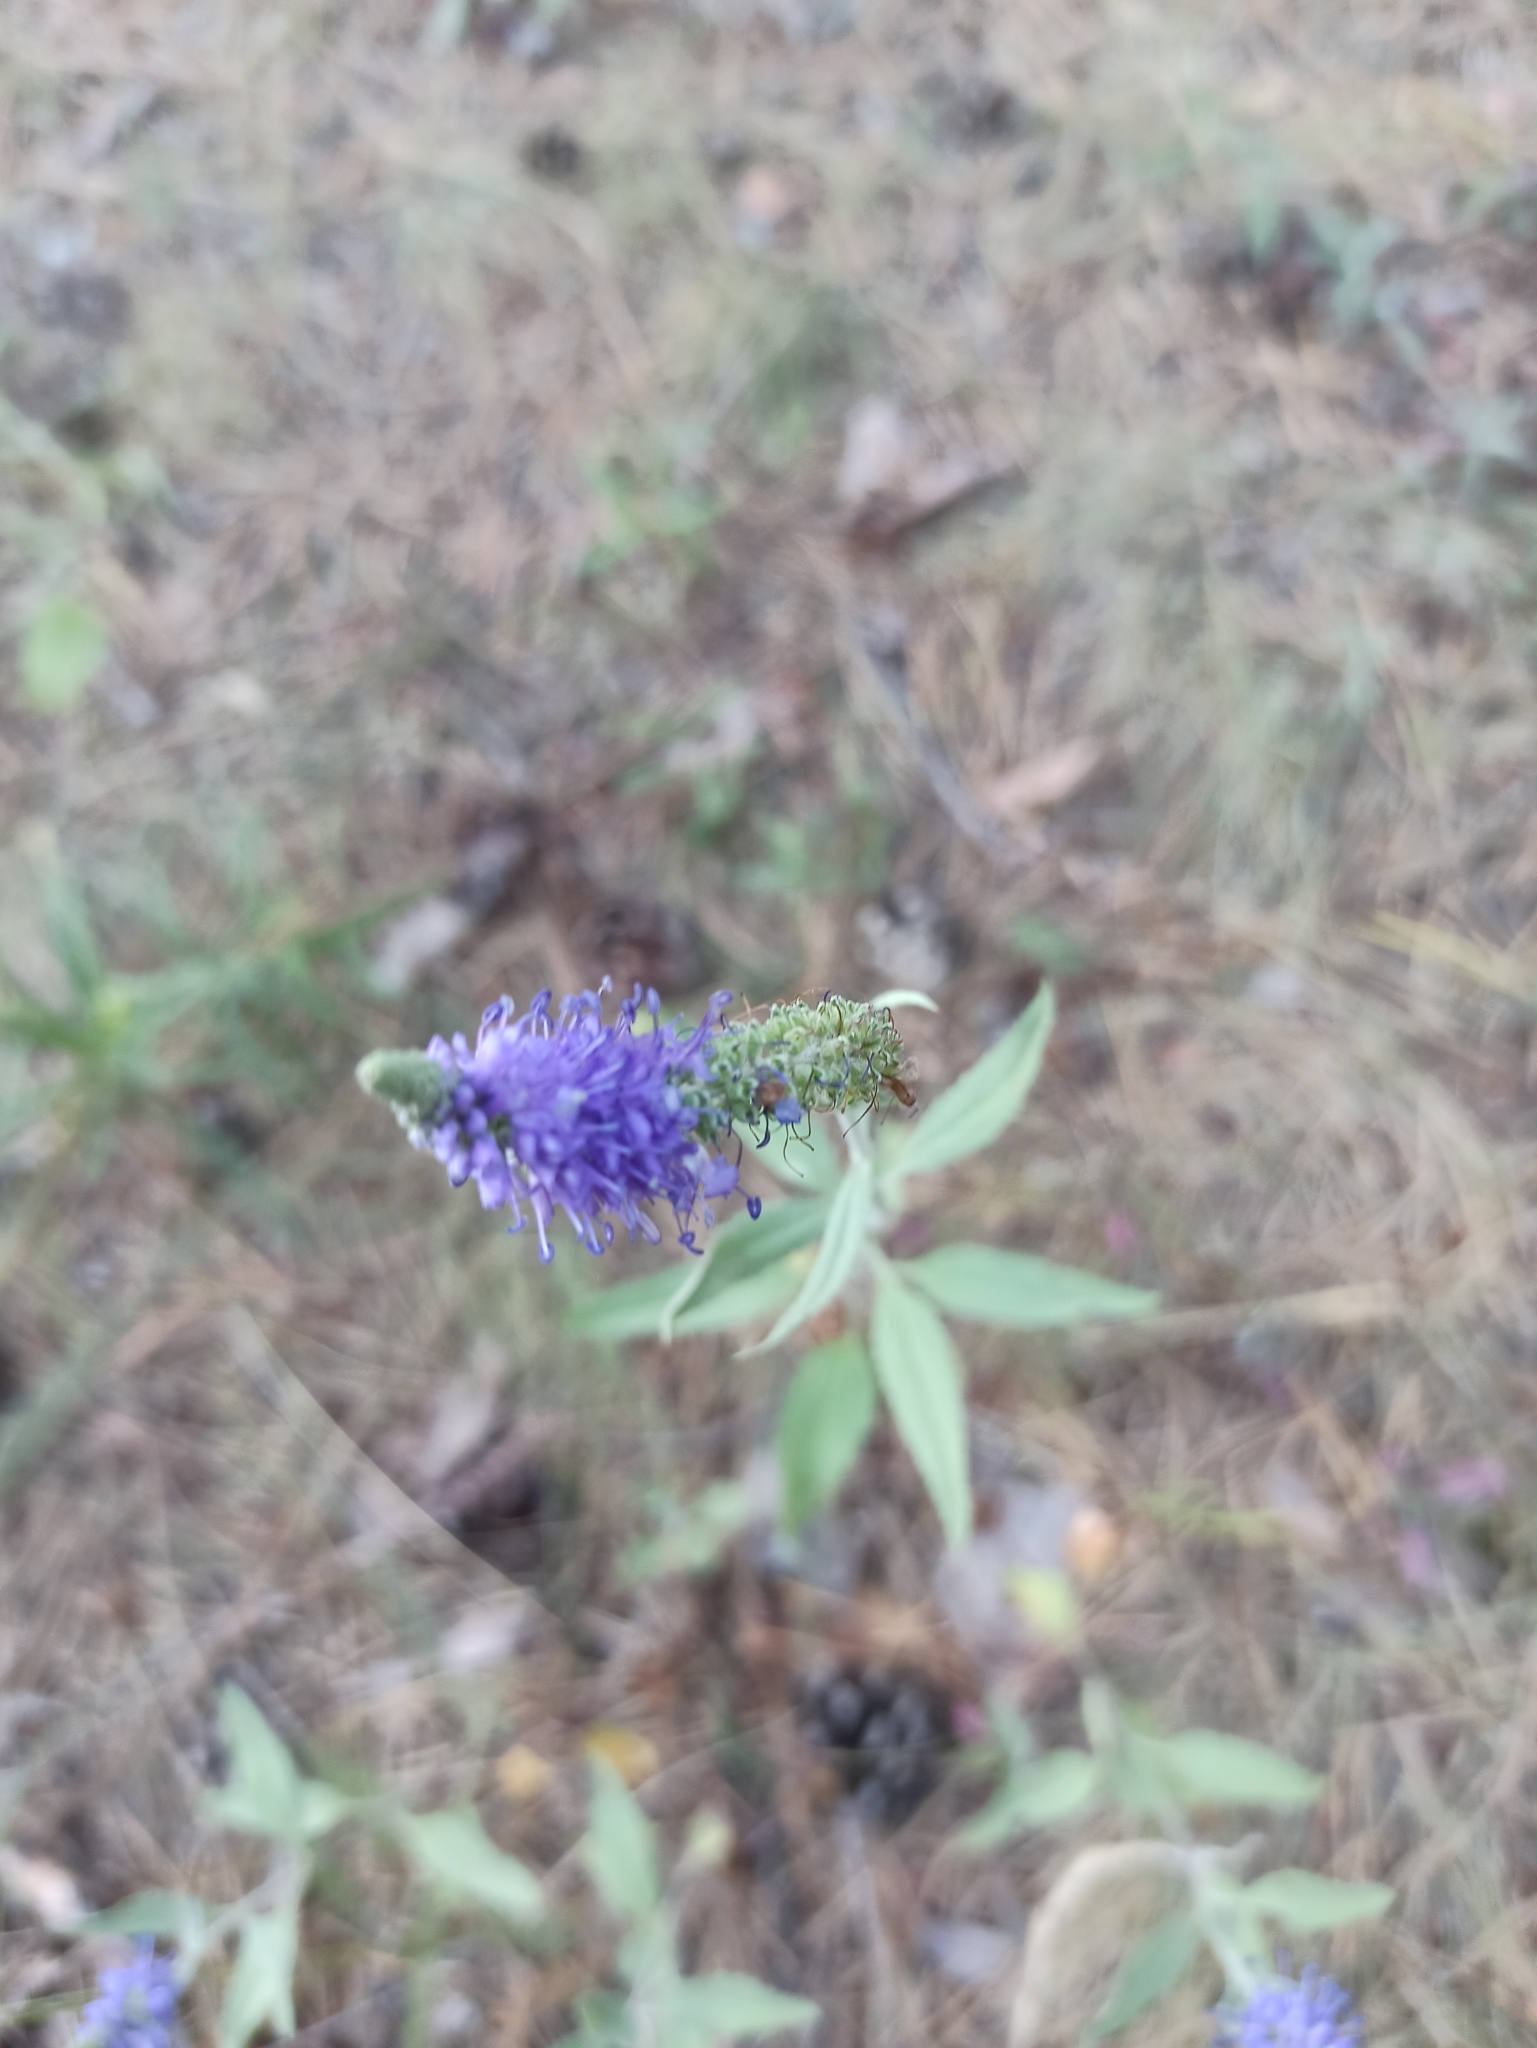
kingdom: Plantae
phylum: Tracheophyta
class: Magnoliopsida
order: Lamiales
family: Plantaginaceae
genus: Veronica
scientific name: Veronica spicata
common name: Spiked speedwell
